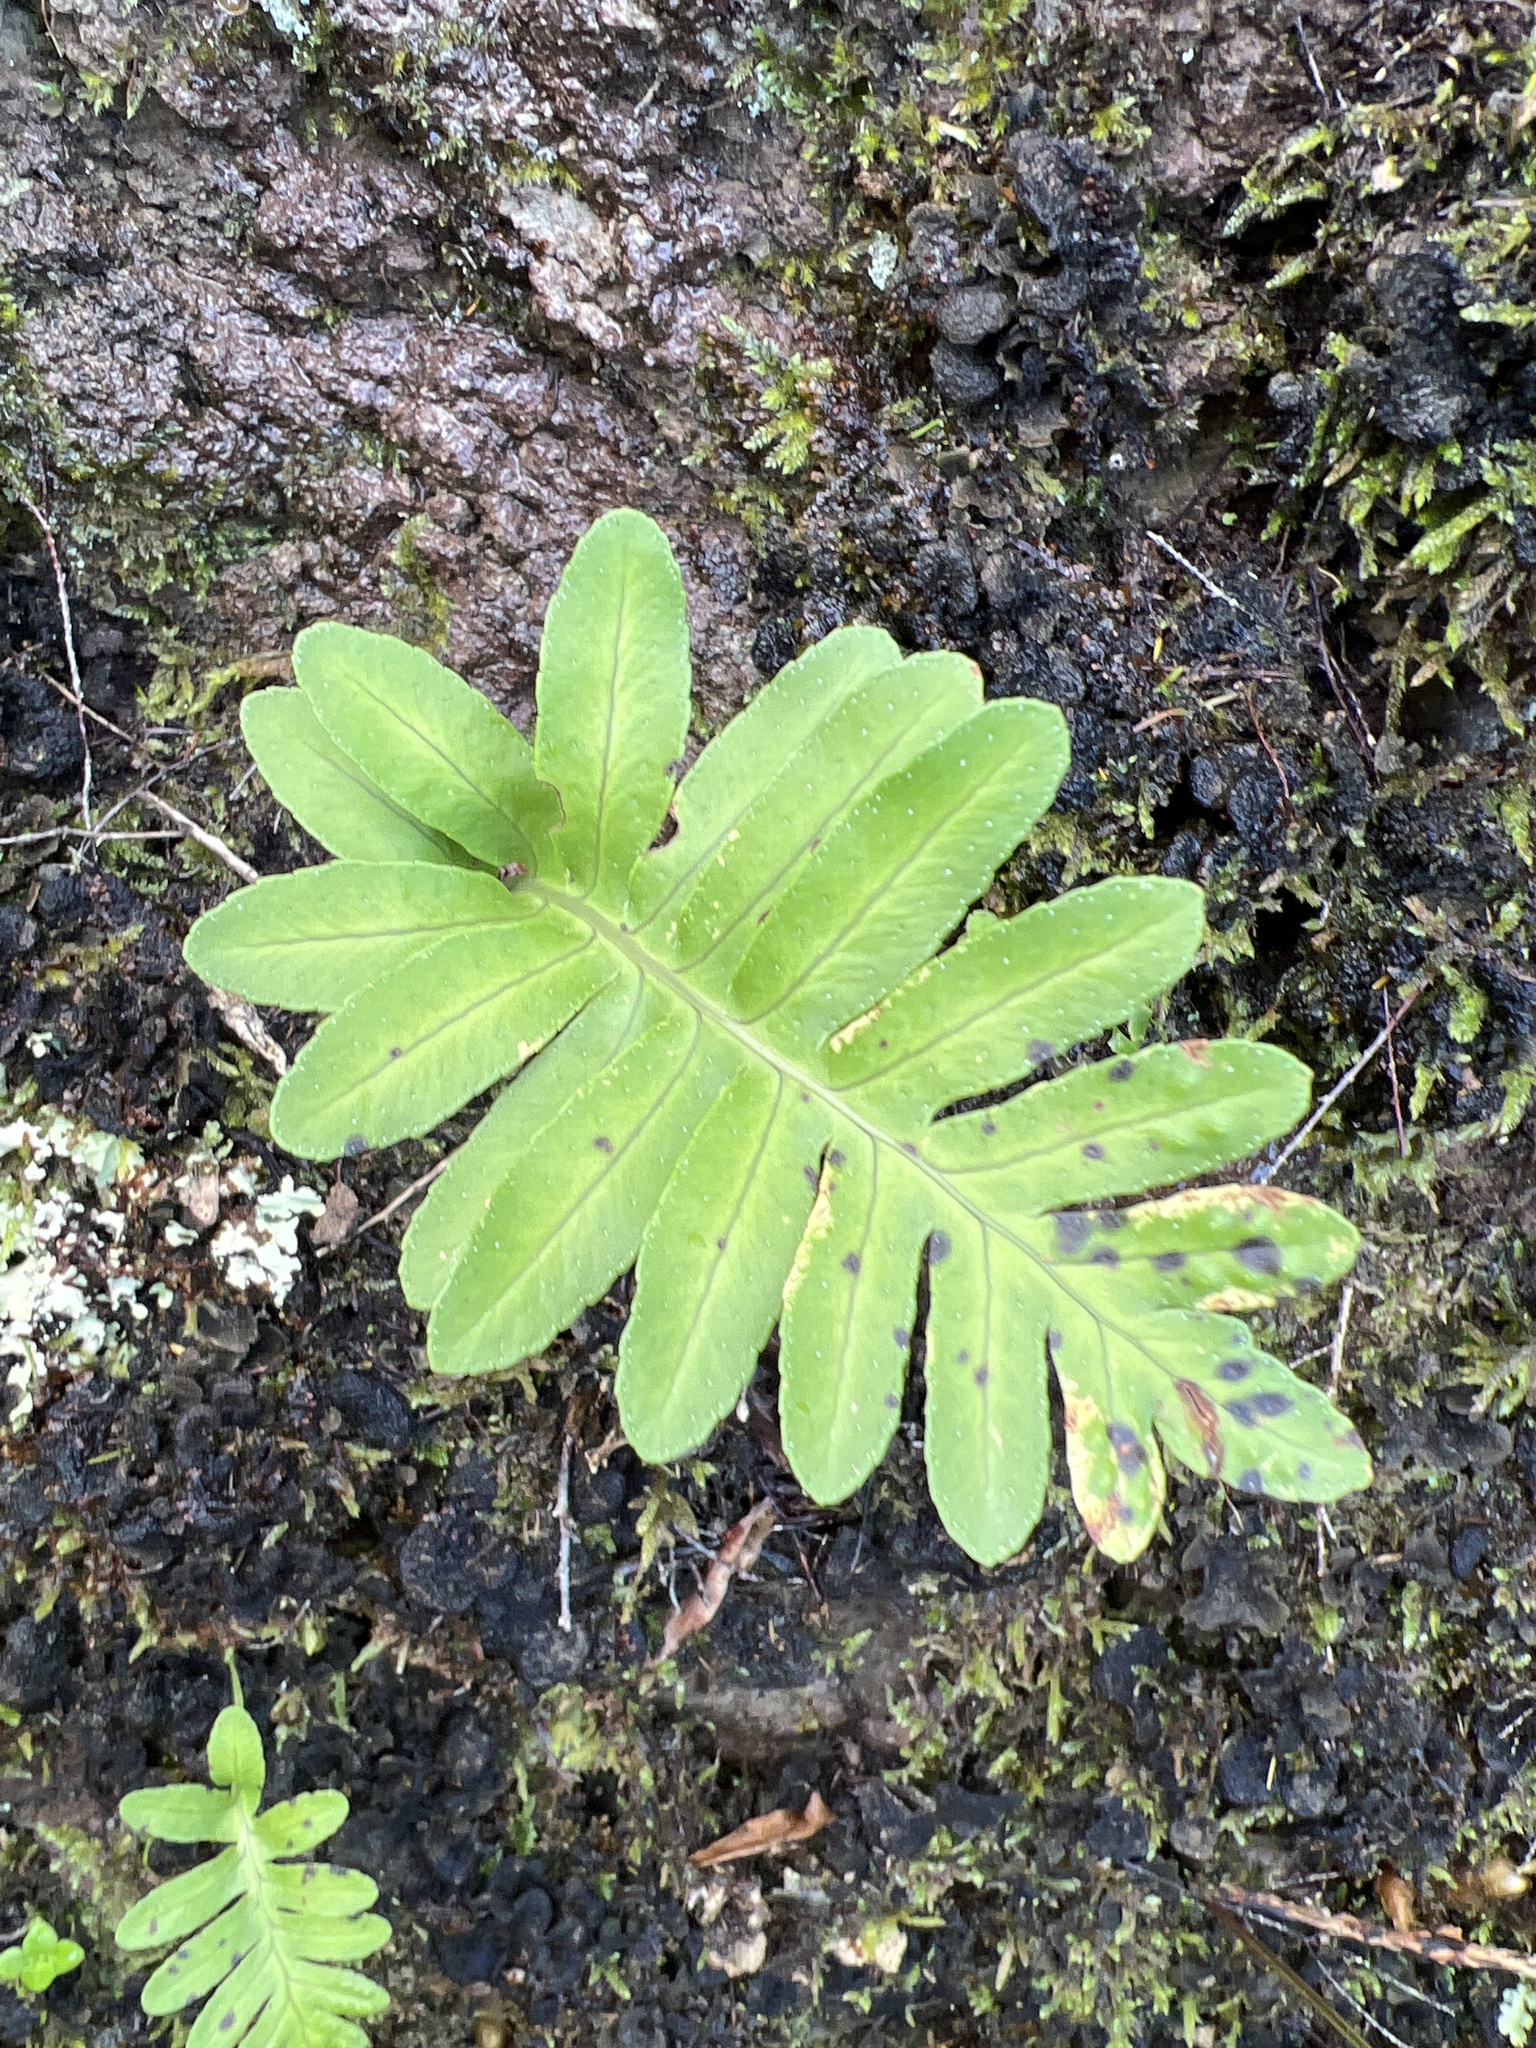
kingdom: Plantae
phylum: Tracheophyta
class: Polypodiopsida
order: Polypodiales
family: Polypodiaceae
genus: Polypodium
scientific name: Polypodium macaronesicum
